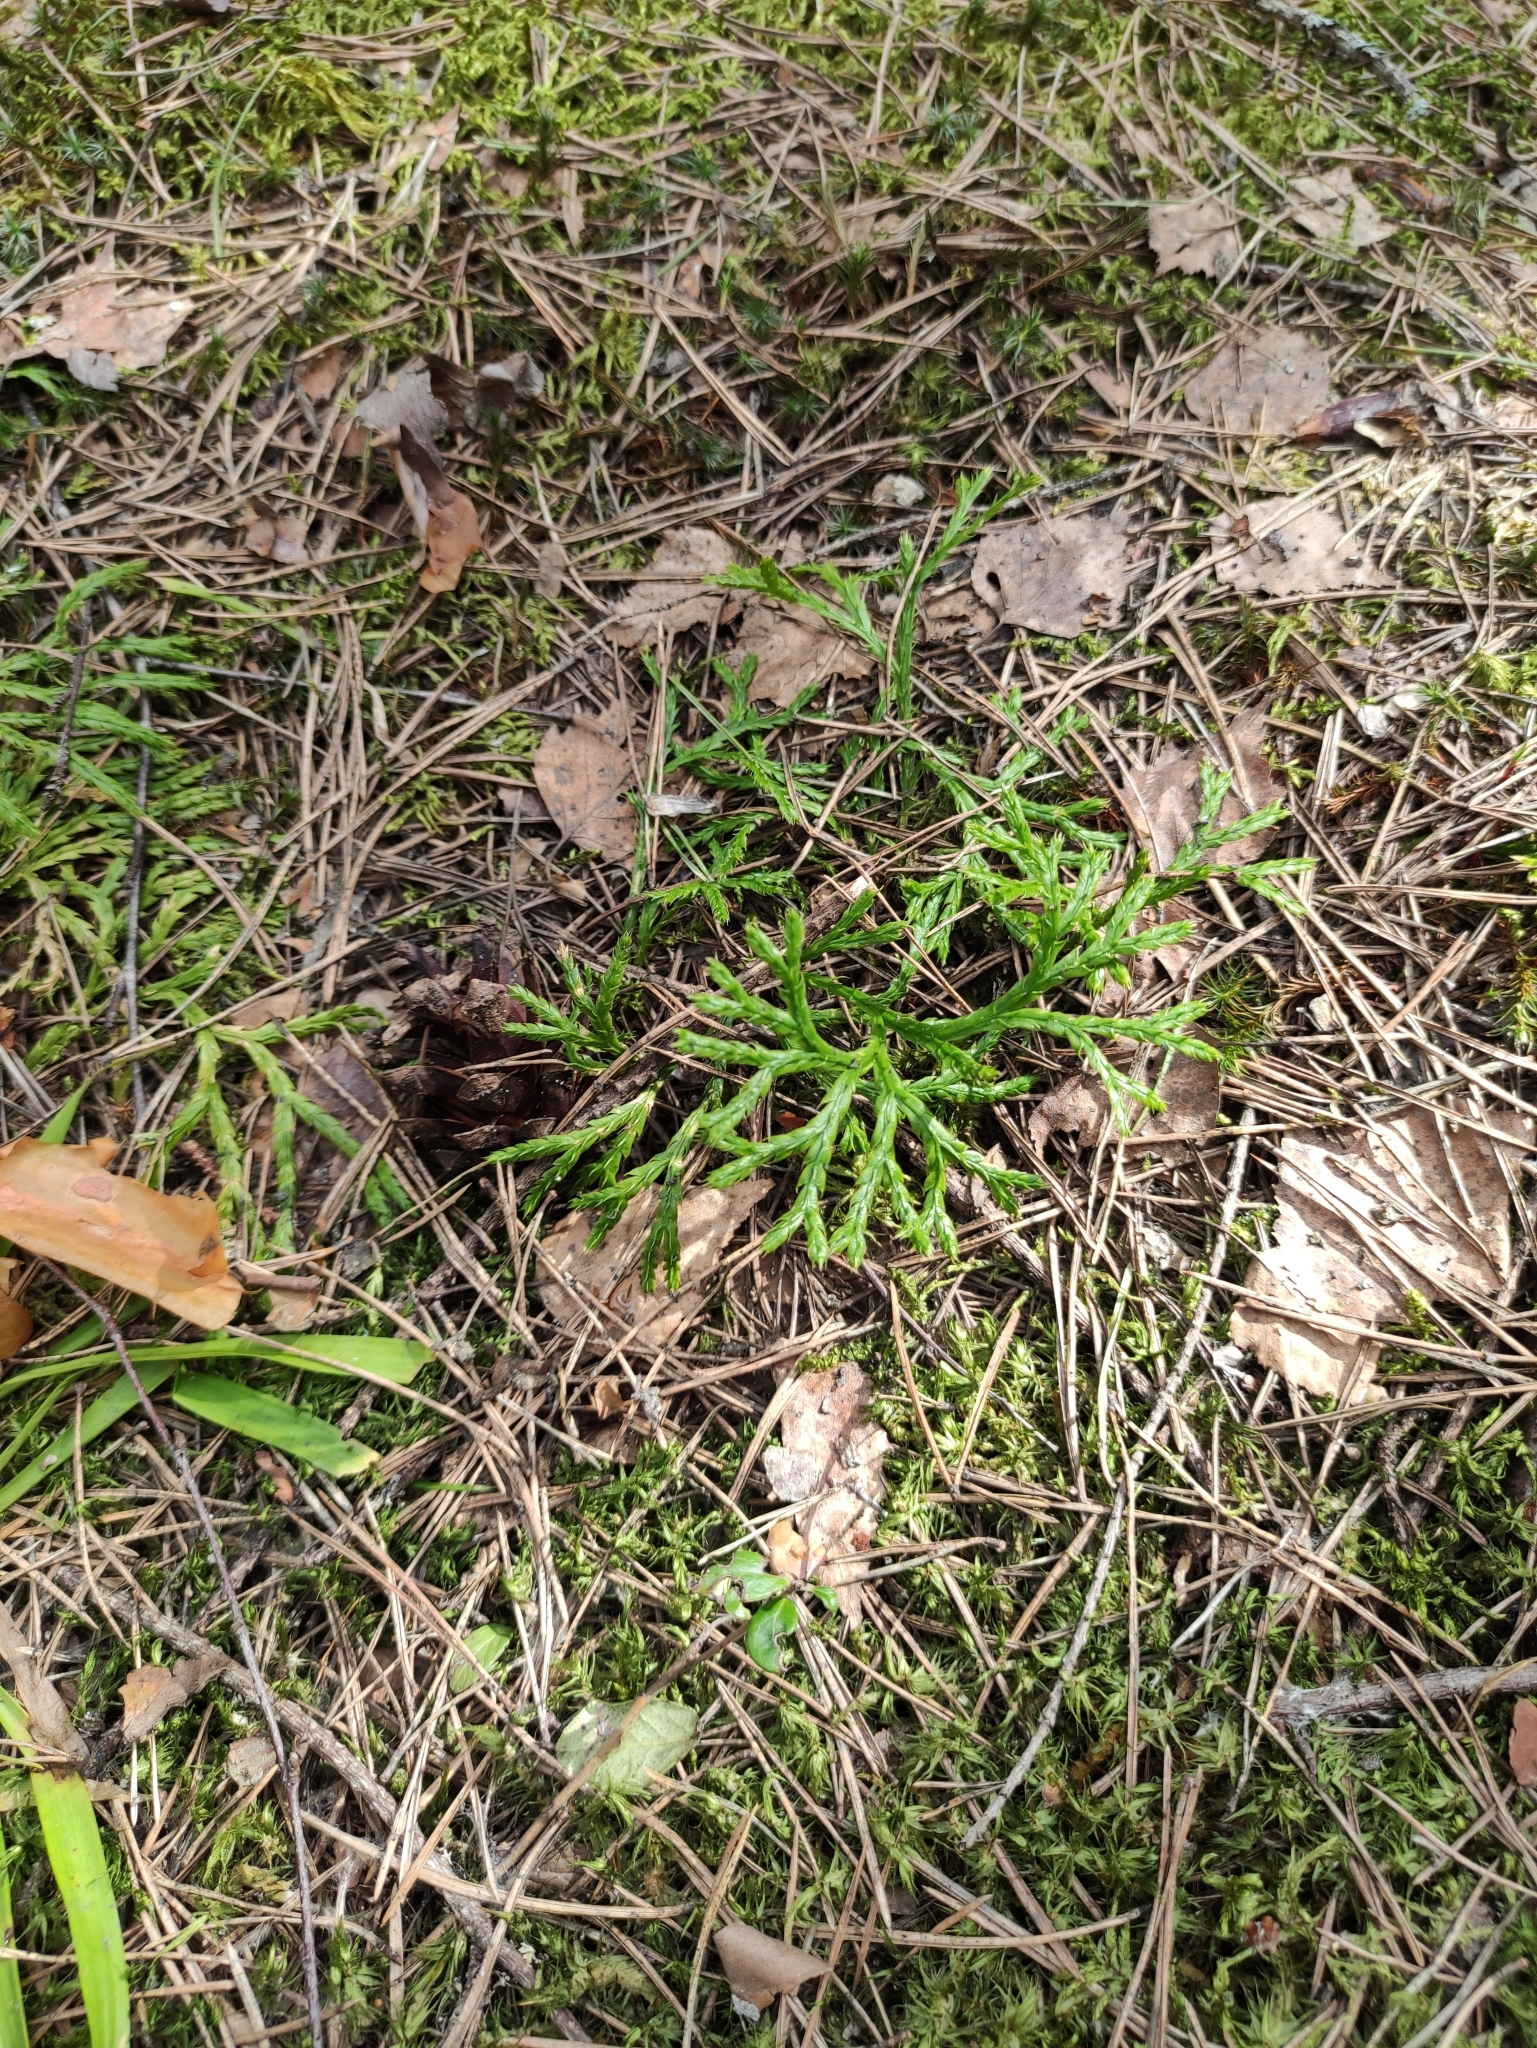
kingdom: Plantae
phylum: Tracheophyta
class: Lycopodiopsida
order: Lycopodiales
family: Lycopodiaceae
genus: Diphasiastrum
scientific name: Diphasiastrum complanatum
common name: Northern running-pine
